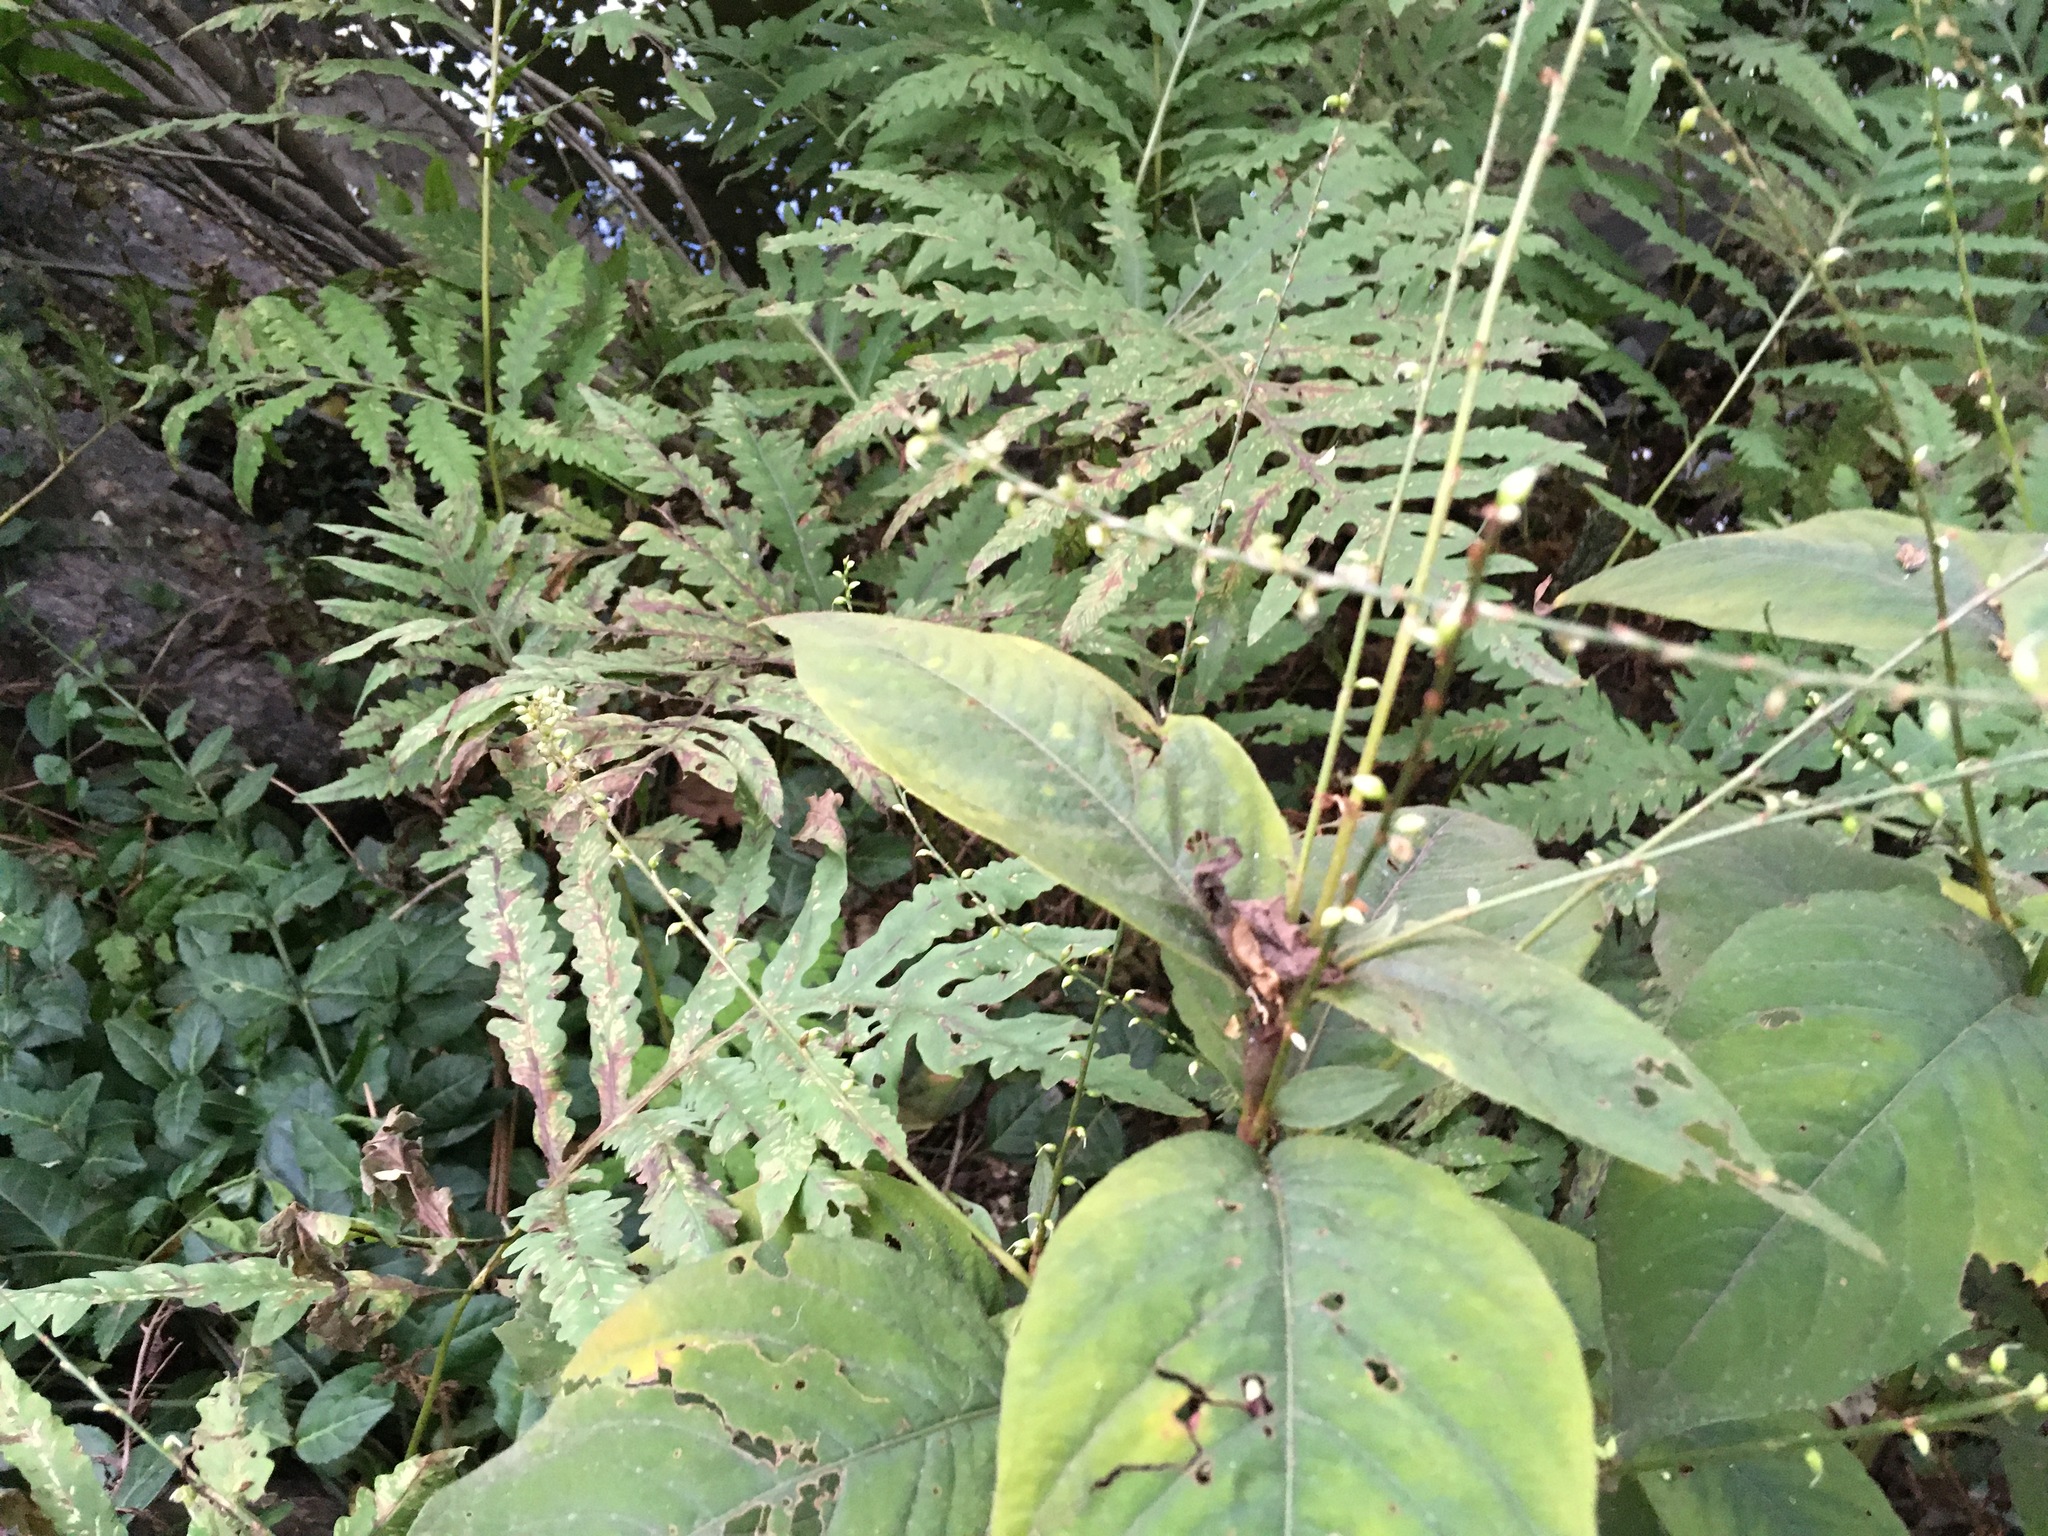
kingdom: Plantae
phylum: Tracheophyta
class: Magnoliopsida
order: Caryophyllales
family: Polygonaceae
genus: Persicaria
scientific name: Persicaria virginiana
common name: Jumpseed
